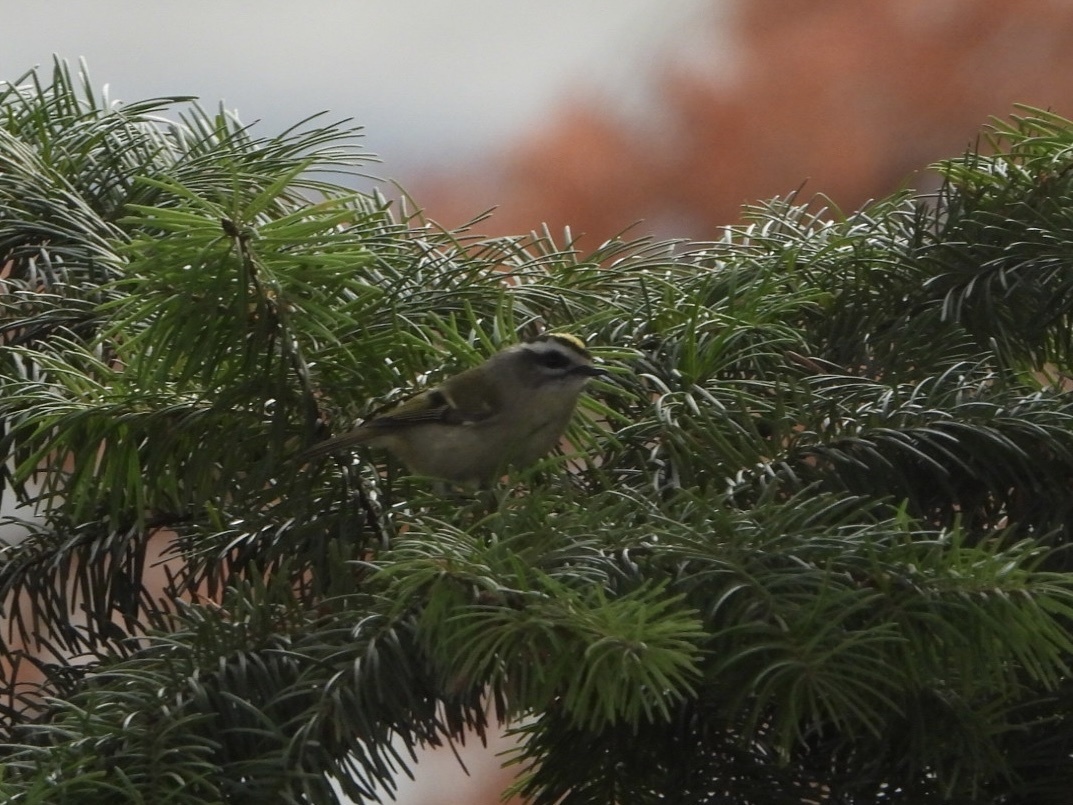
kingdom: Animalia
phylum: Chordata
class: Aves
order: Passeriformes
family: Regulidae
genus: Regulus
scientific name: Regulus satrapa
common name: Golden-crowned kinglet
